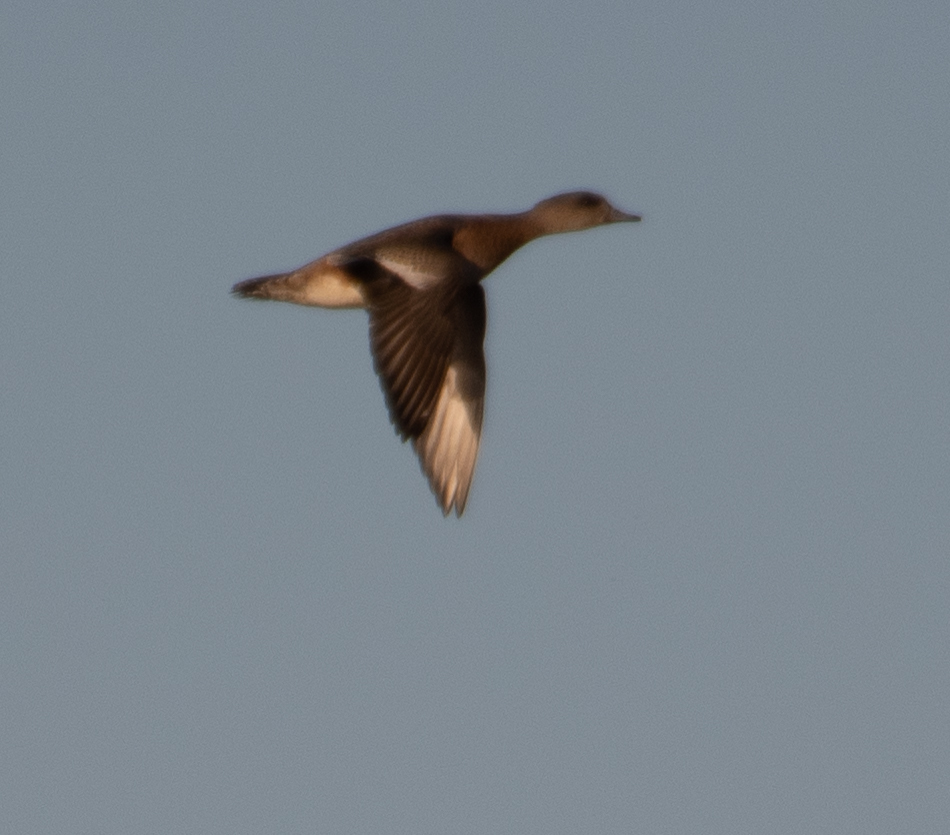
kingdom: Animalia
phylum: Chordata
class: Aves
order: Anseriformes
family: Anatidae
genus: Mareca
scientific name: Mareca americana
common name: American wigeon
